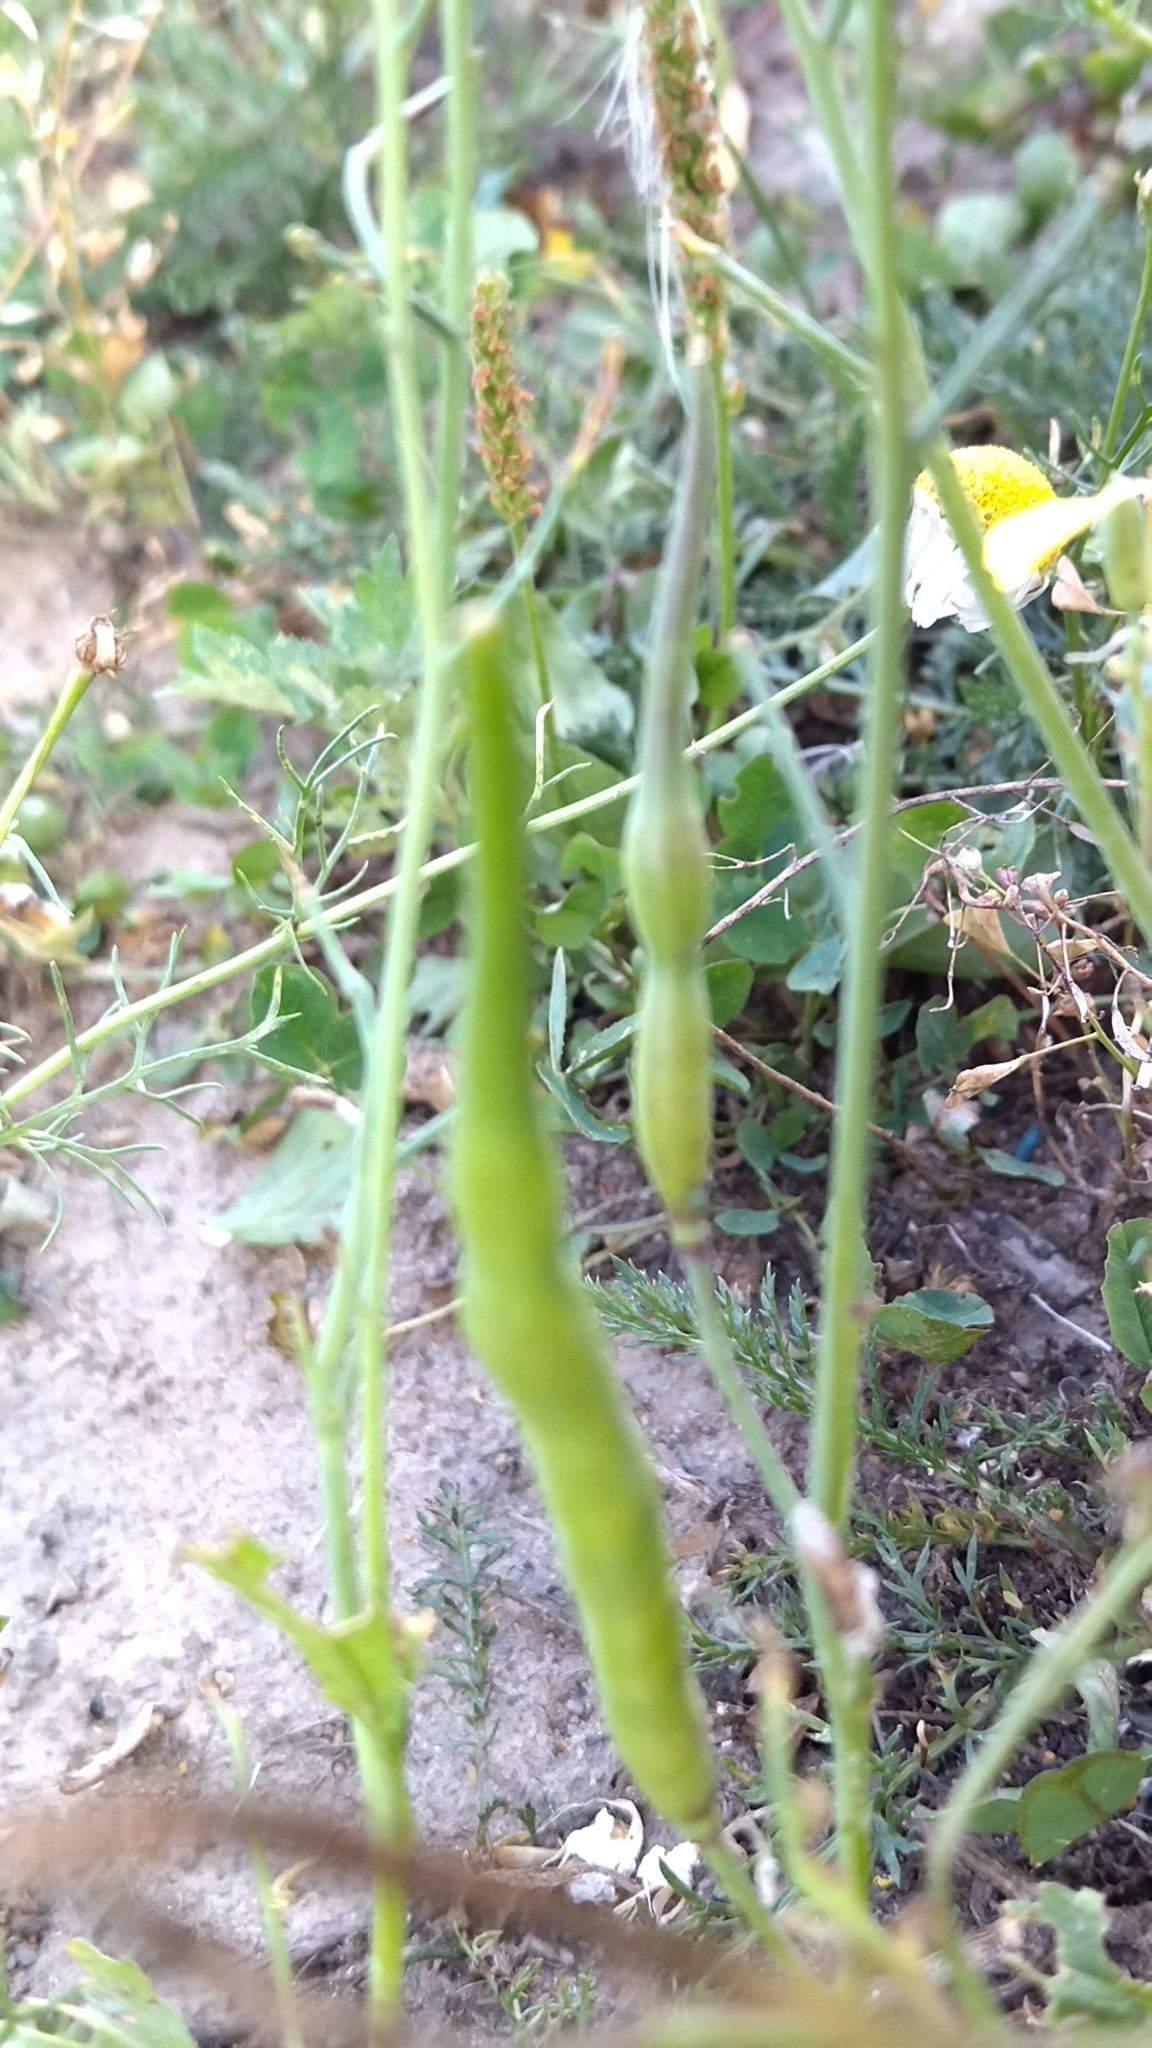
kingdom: Plantae
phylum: Tracheophyta
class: Magnoliopsida
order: Brassicales
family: Brassicaceae
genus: Raphanus
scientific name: Raphanus raphanistrum
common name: Wild radish
